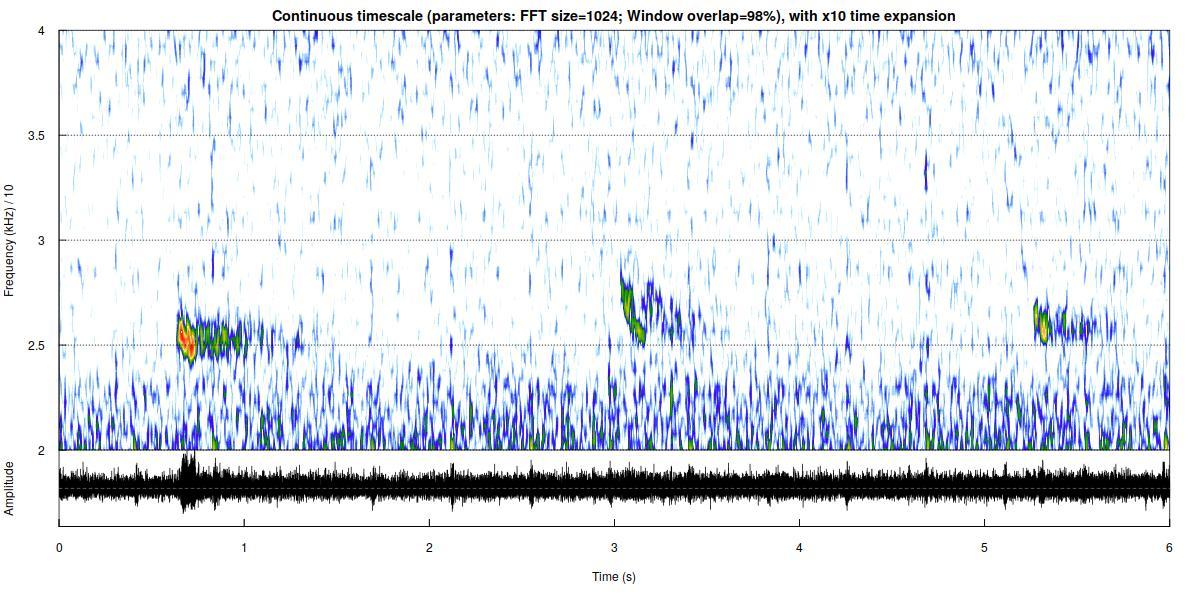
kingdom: Animalia
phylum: Chordata
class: Mammalia
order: Chiroptera
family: Vespertilionidae
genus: Nyctalus
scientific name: Nyctalus leisleri
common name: Lesser noctule
